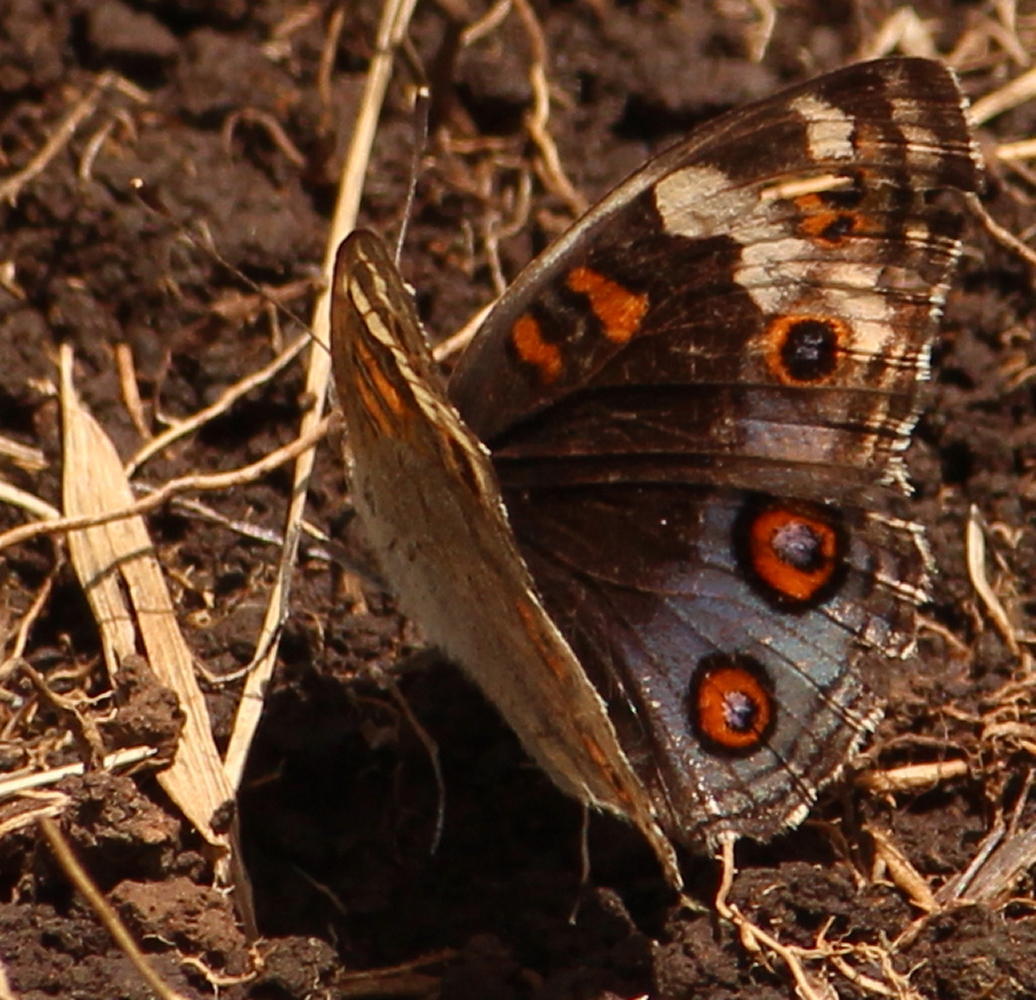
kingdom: Animalia
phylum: Arthropoda
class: Insecta
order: Lepidoptera
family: Nymphalidae
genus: Junonia
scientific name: Junonia orithya
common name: Blue pansy
